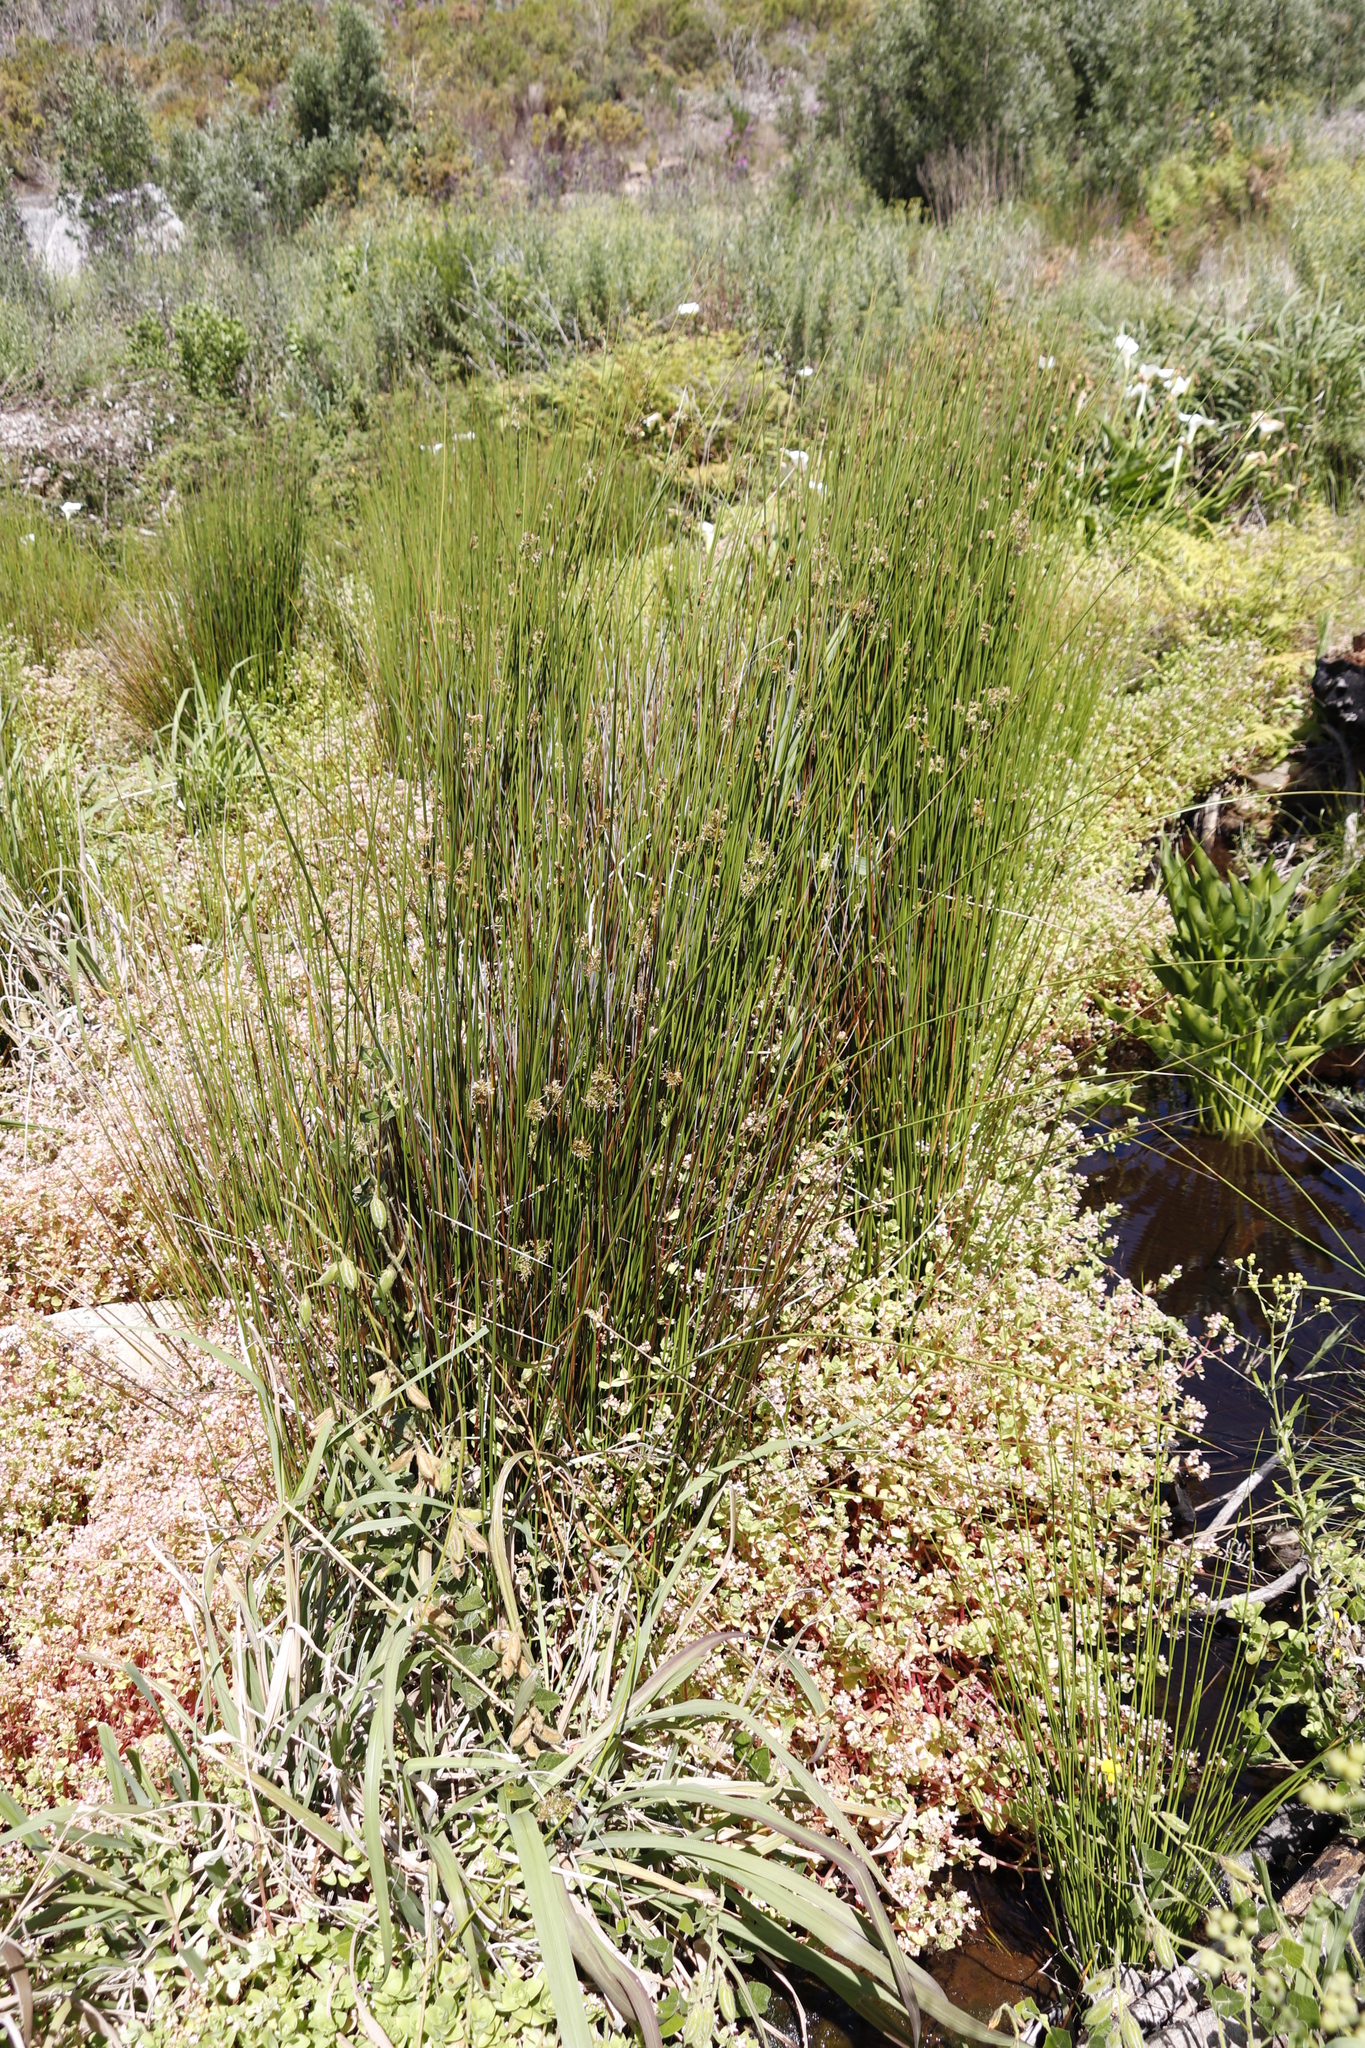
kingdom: Plantae
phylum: Tracheophyta
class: Liliopsida
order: Poales
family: Juncaceae
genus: Juncus
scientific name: Juncus effusus
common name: Soft rush
